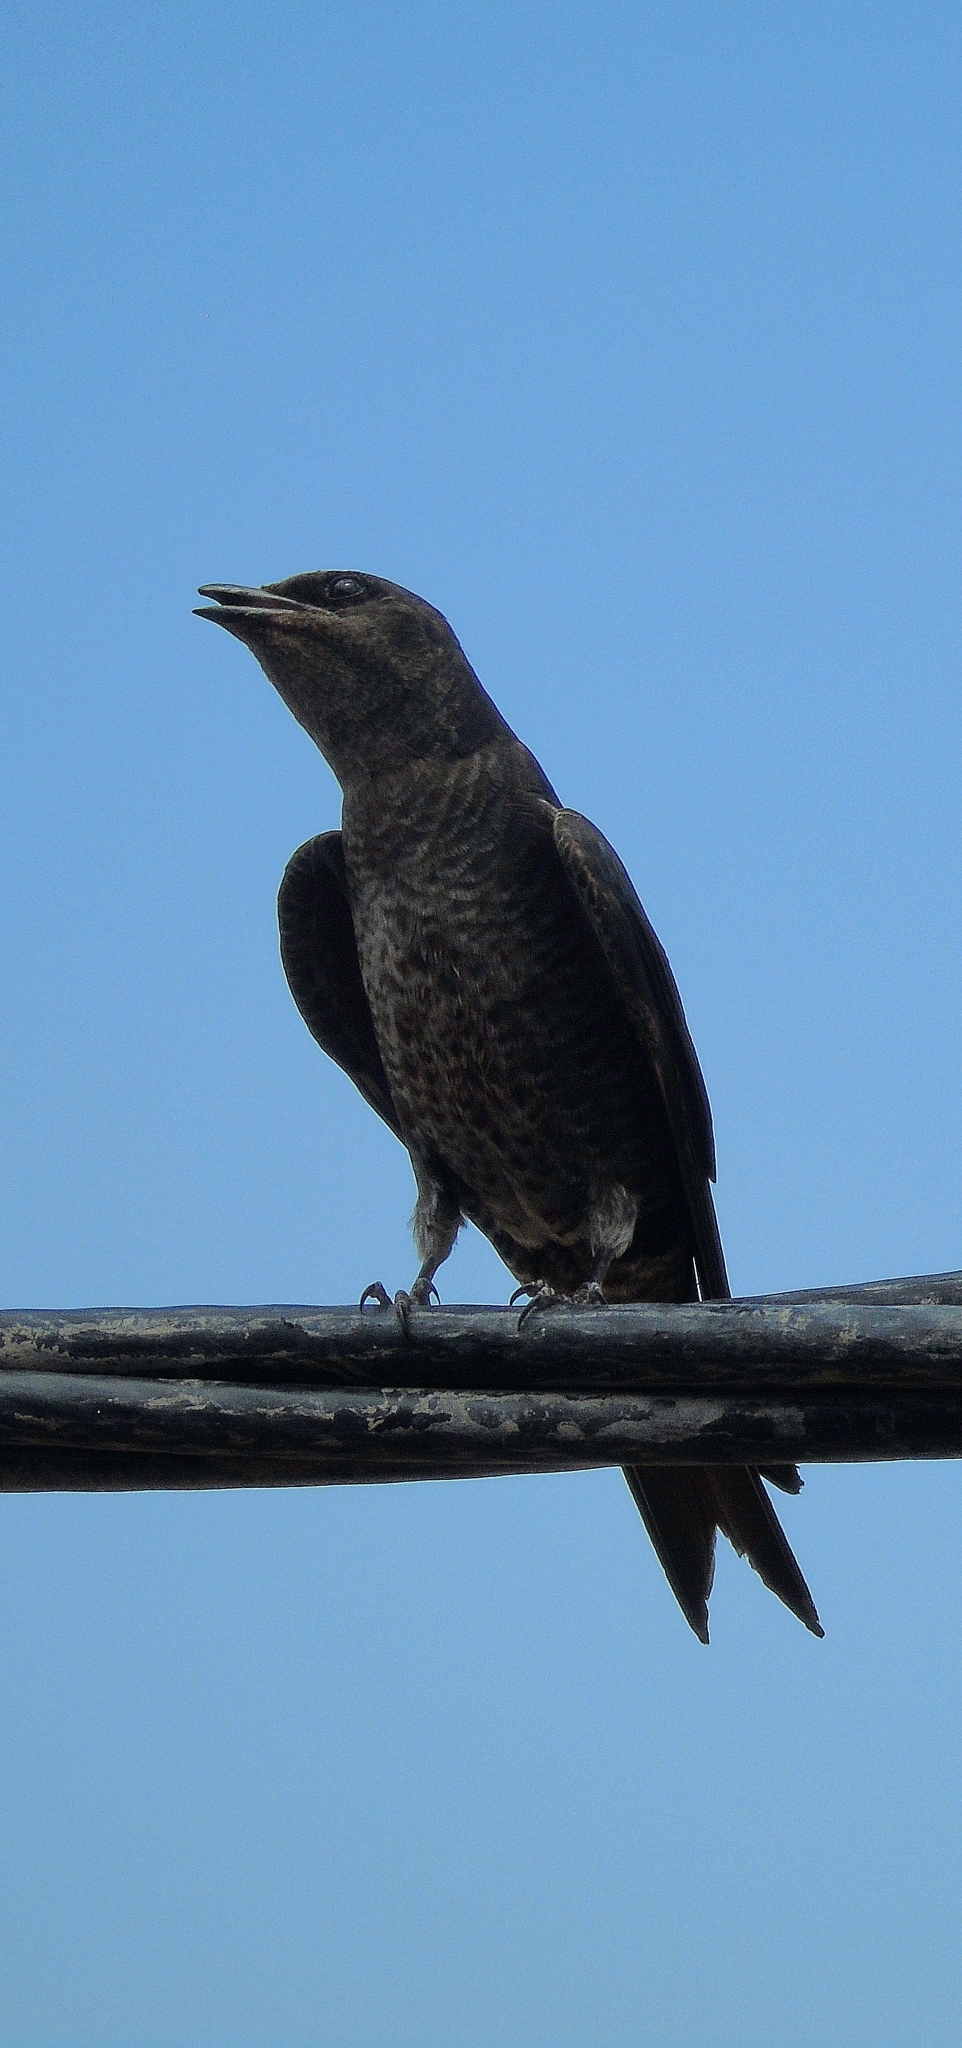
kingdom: Animalia
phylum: Chordata
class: Aves
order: Passeriformes
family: Hirundinidae
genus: Progne
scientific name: Progne elegans
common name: Southern martin
